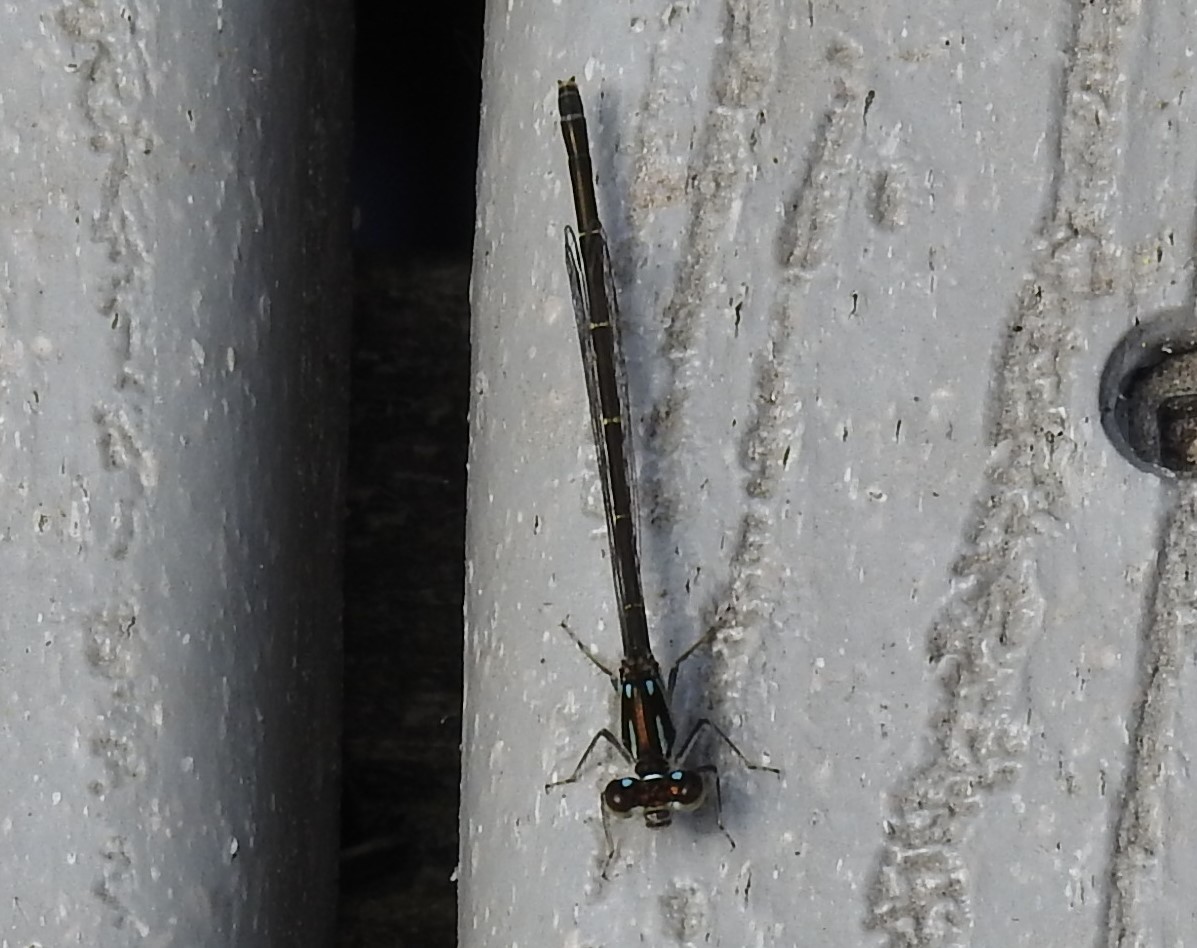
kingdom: Animalia
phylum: Arthropoda
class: Insecta
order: Odonata
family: Coenagrionidae
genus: Ischnura
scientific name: Ischnura posita
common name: Fragile forktail
